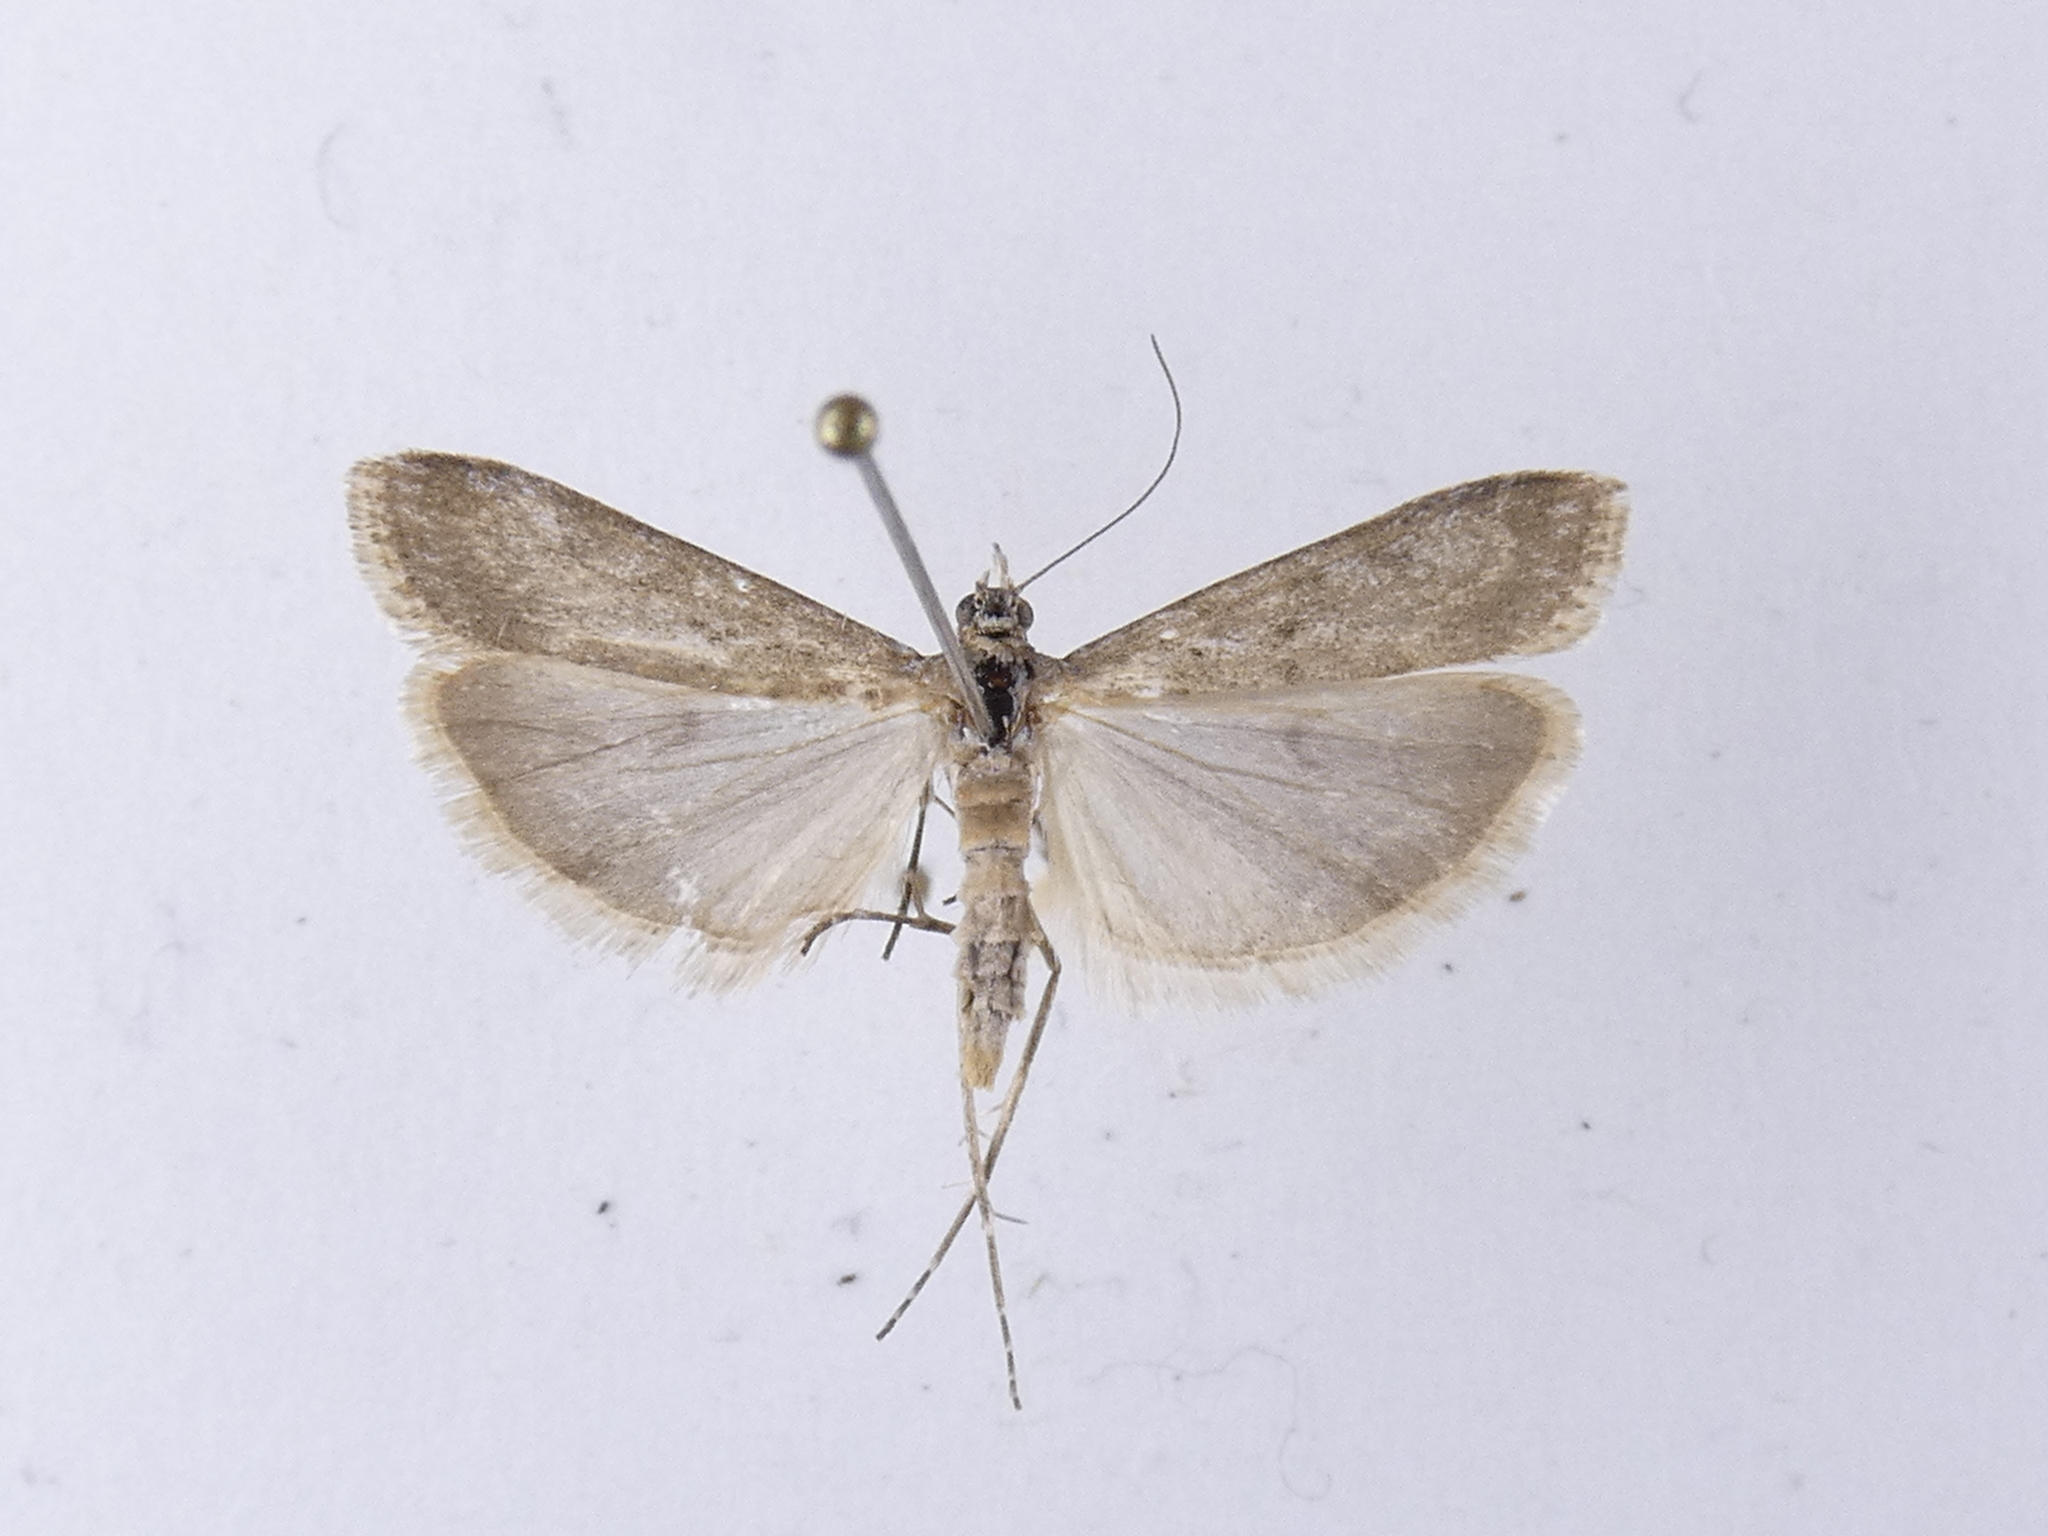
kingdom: Animalia
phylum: Arthropoda
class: Insecta
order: Lepidoptera
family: Crambidae
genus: Eudonia
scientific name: Eudonia leptalea
